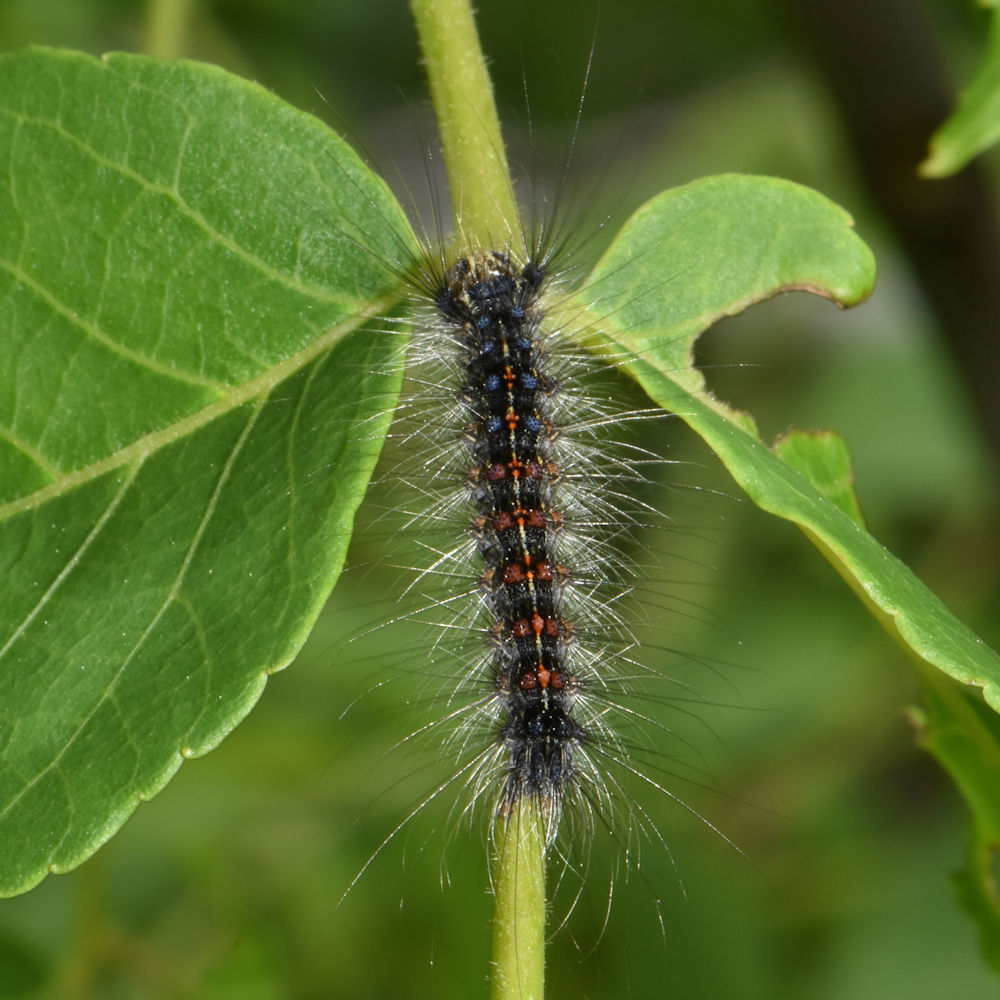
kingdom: Animalia
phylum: Arthropoda
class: Insecta
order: Lepidoptera
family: Erebidae
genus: Lymantria
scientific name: Lymantria dispar
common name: Gypsy moth
